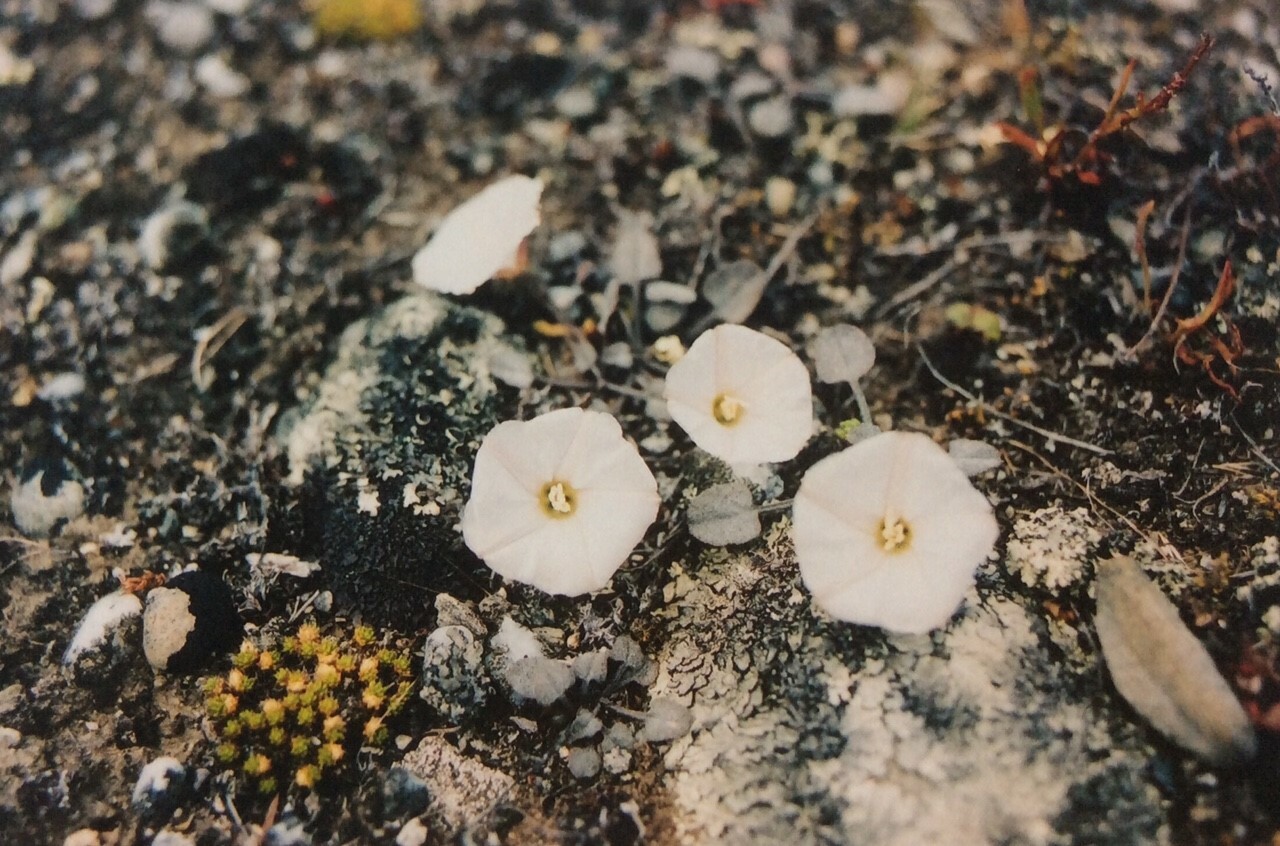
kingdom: Plantae
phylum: Tracheophyta
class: Magnoliopsida
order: Solanales
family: Convolvulaceae
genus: Convolvulus
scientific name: Convolvulus verecundus
